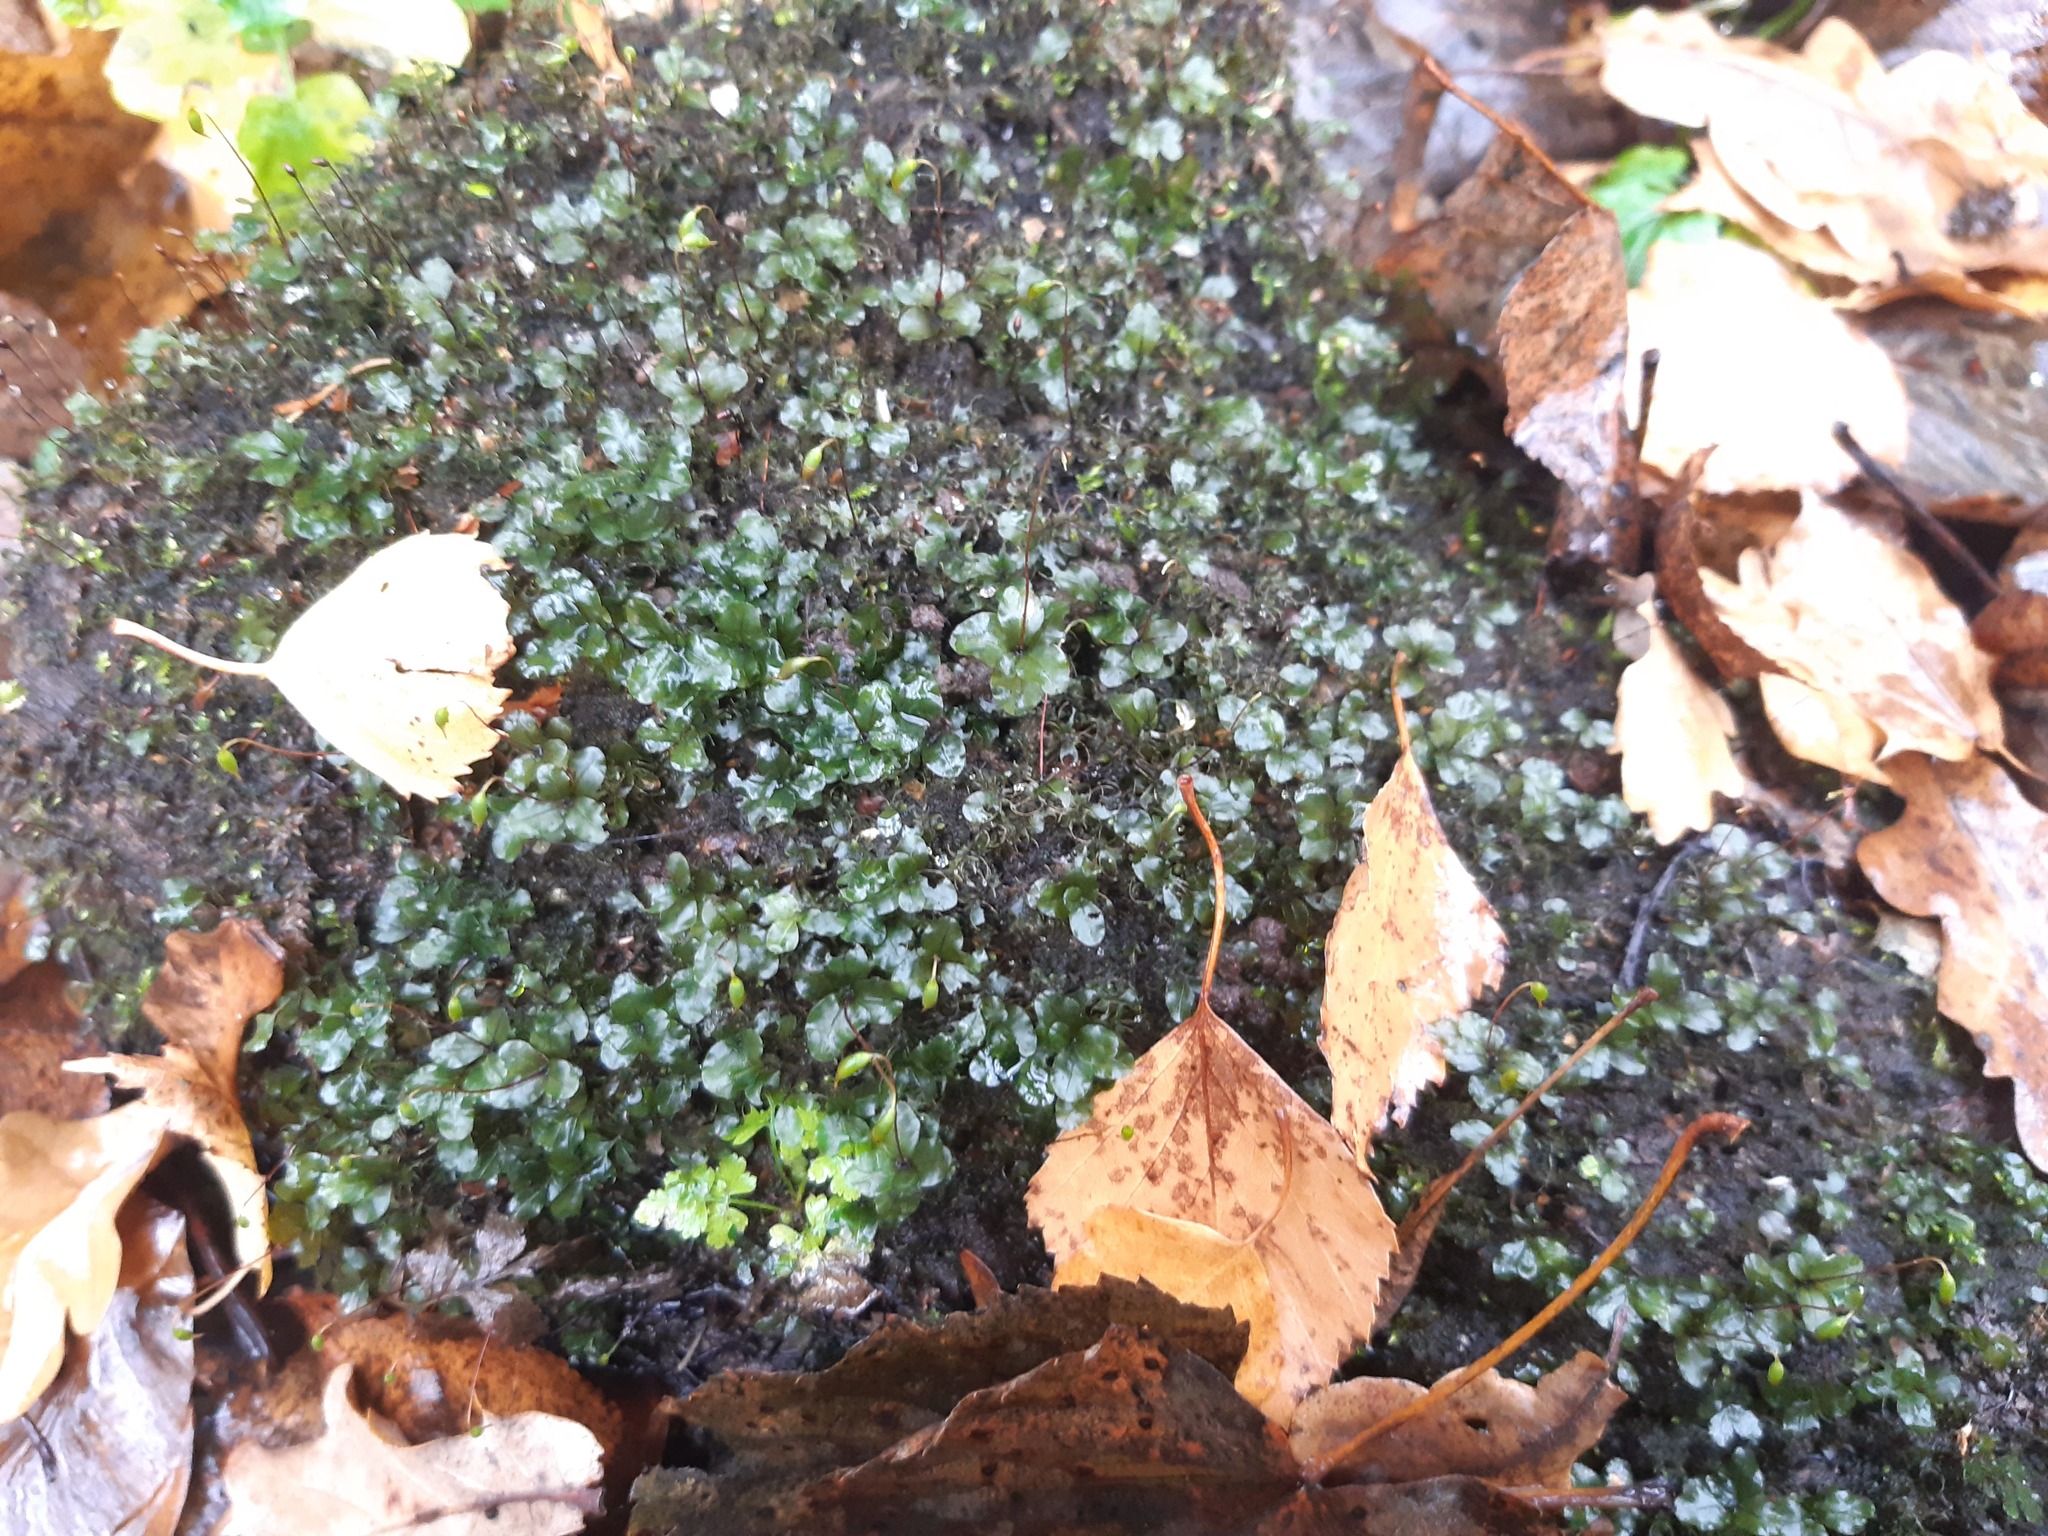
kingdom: Plantae
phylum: Bryophyta
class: Bryopsida
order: Bryales
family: Mniaceae
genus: Rhizomnium
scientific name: Rhizomnium punctatum
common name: Dotted leafy moss
